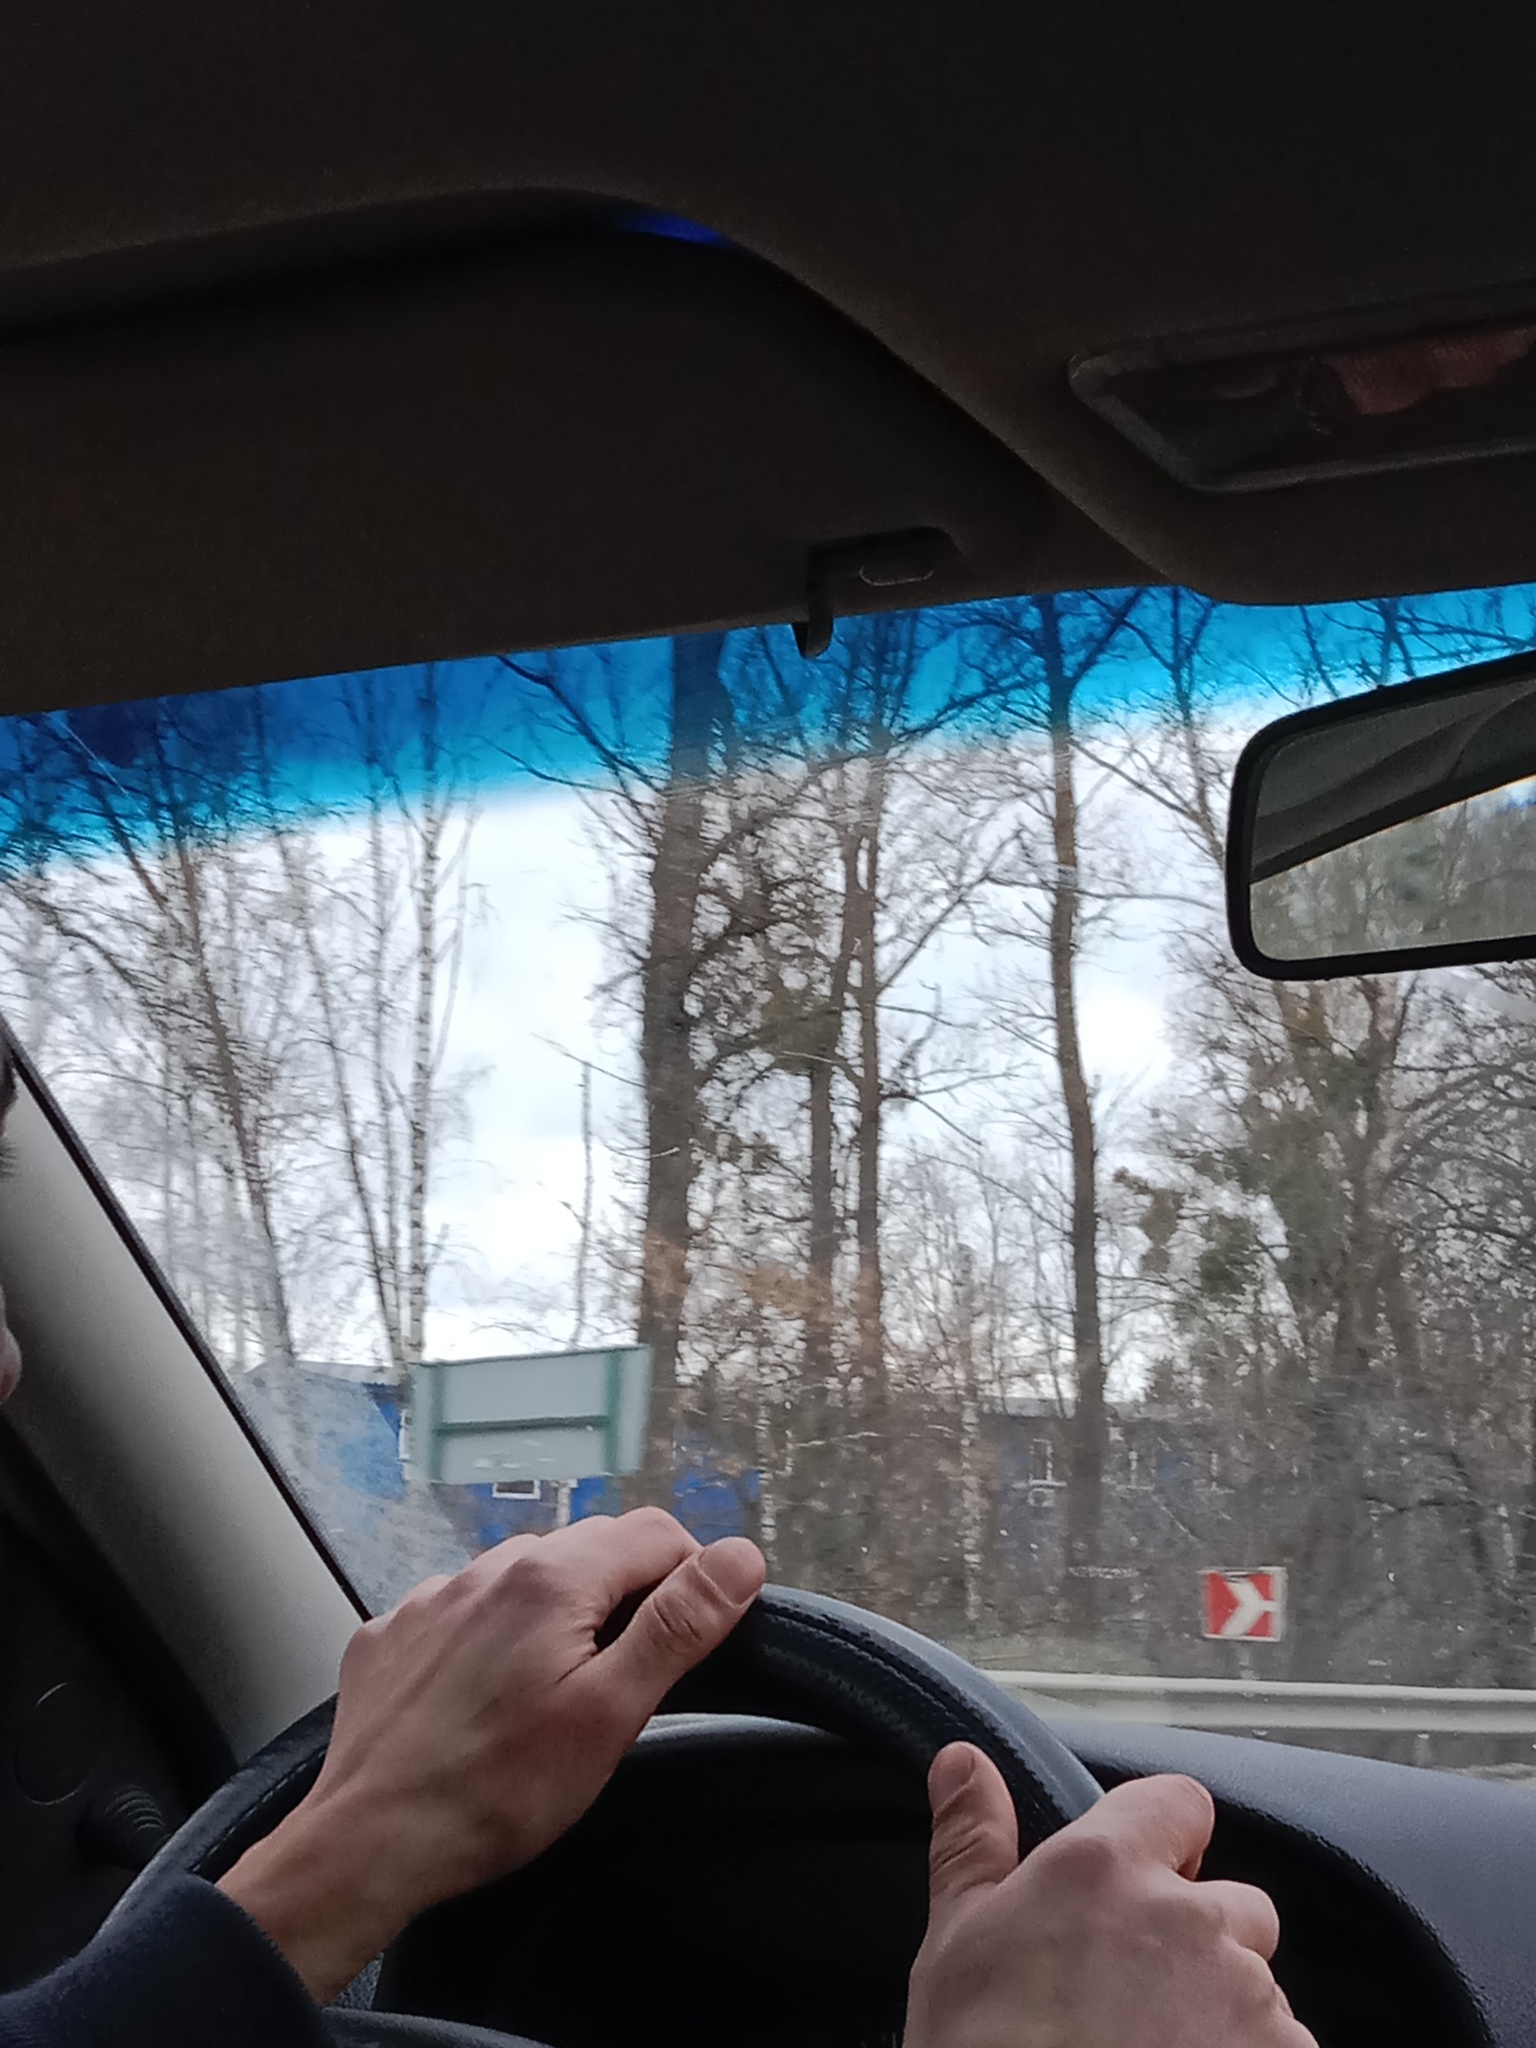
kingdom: Plantae
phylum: Tracheophyta
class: Magnoliopsida
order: Santalales
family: Viscaceae
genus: Viscum
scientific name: Viscum album
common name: Mistletoe
